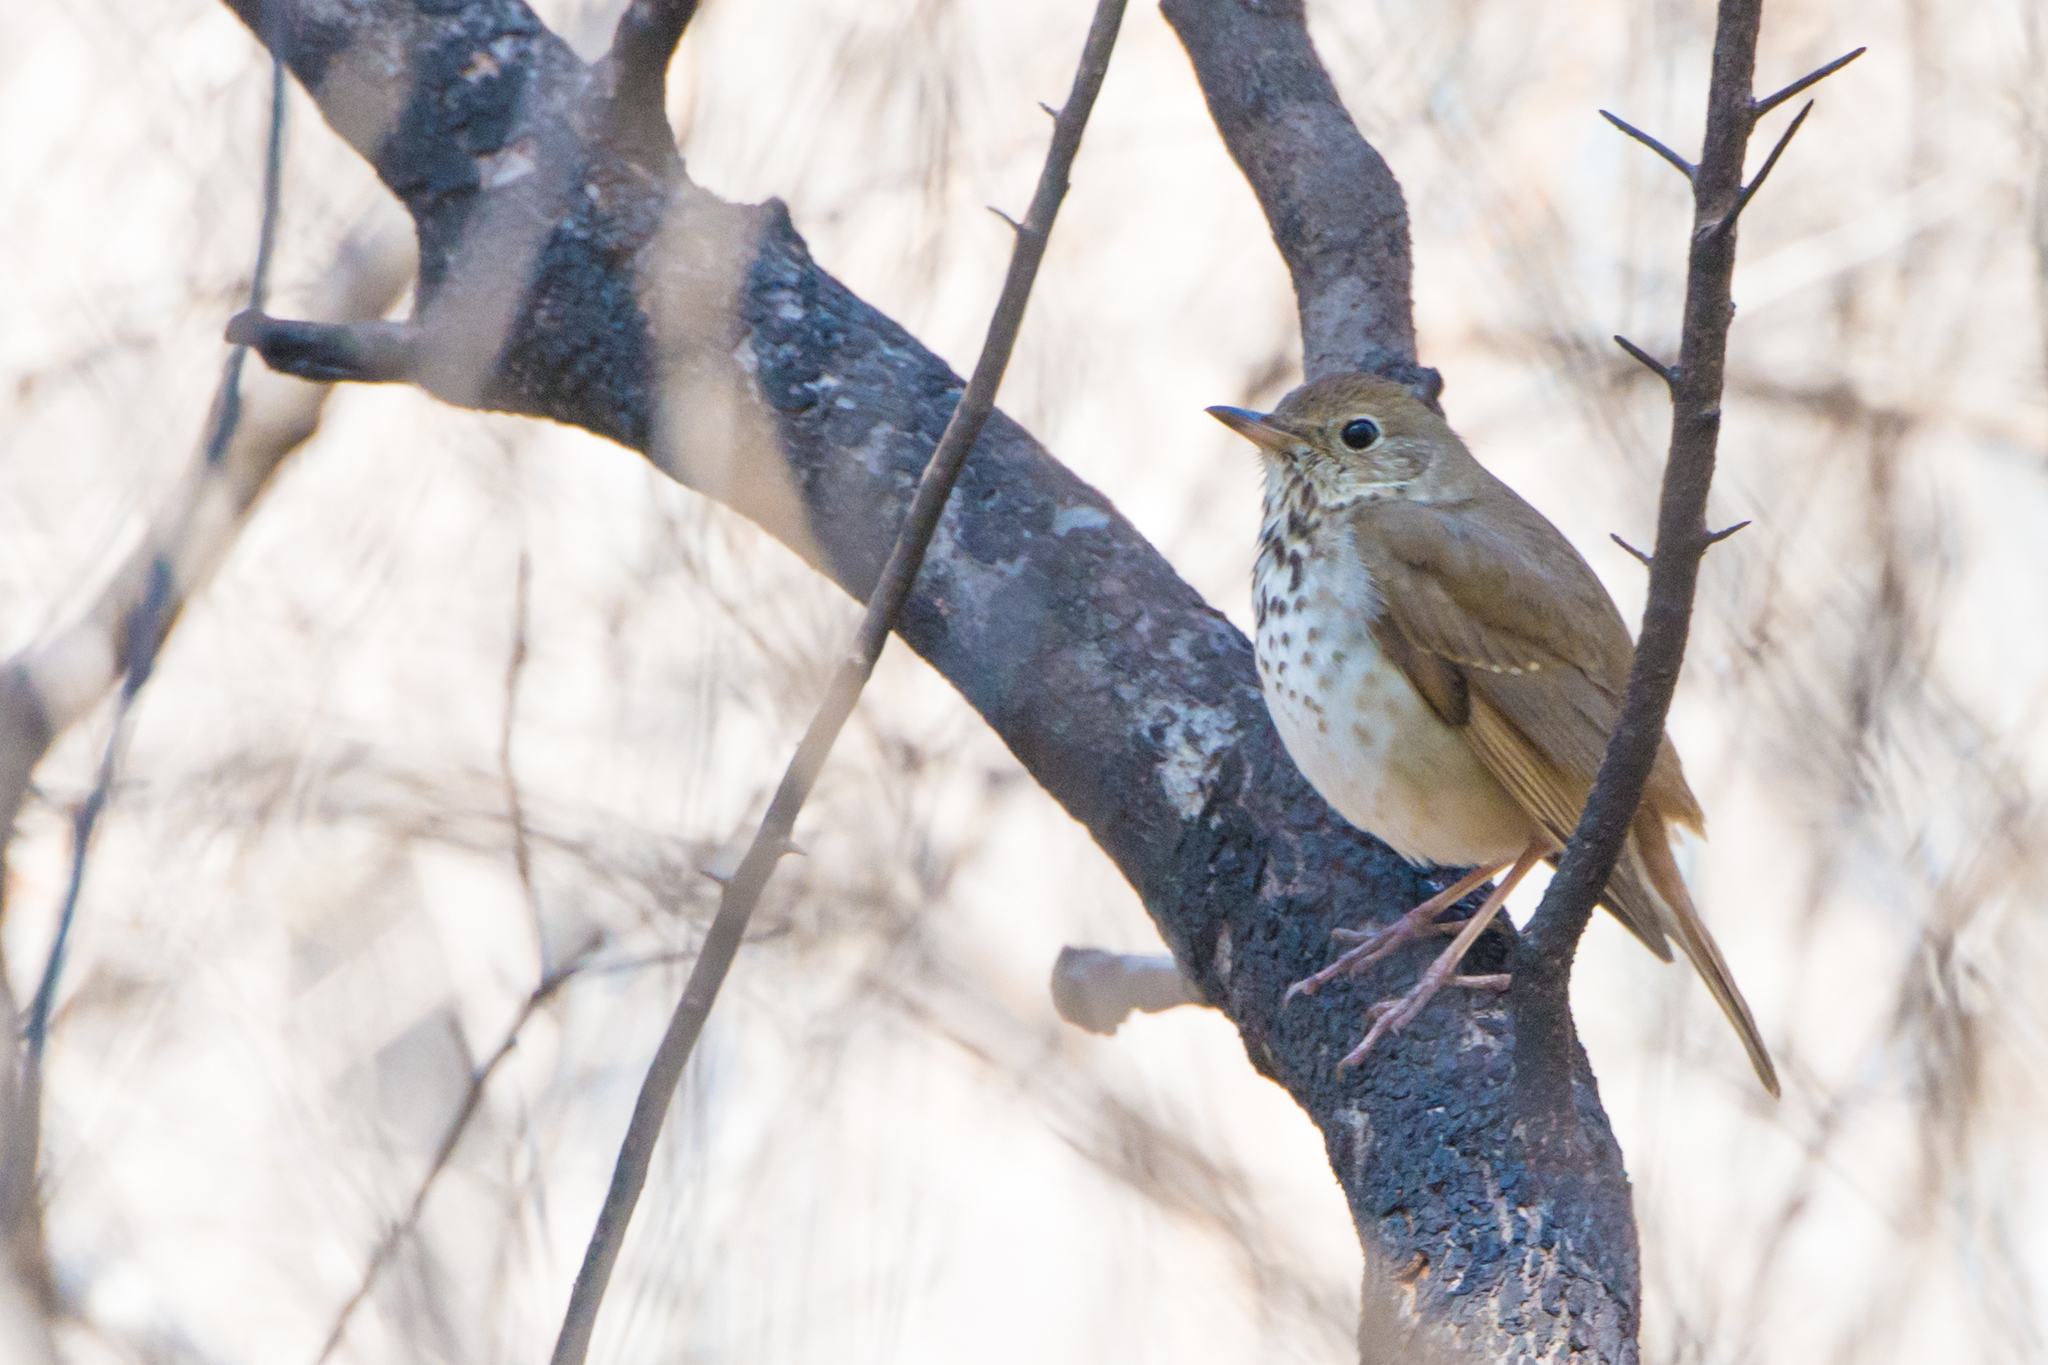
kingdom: Animalia
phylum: Chordata
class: Aves
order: Passeriformes
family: Turdidae
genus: Catharus
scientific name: Catharus guttatus
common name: Hermit thrush
